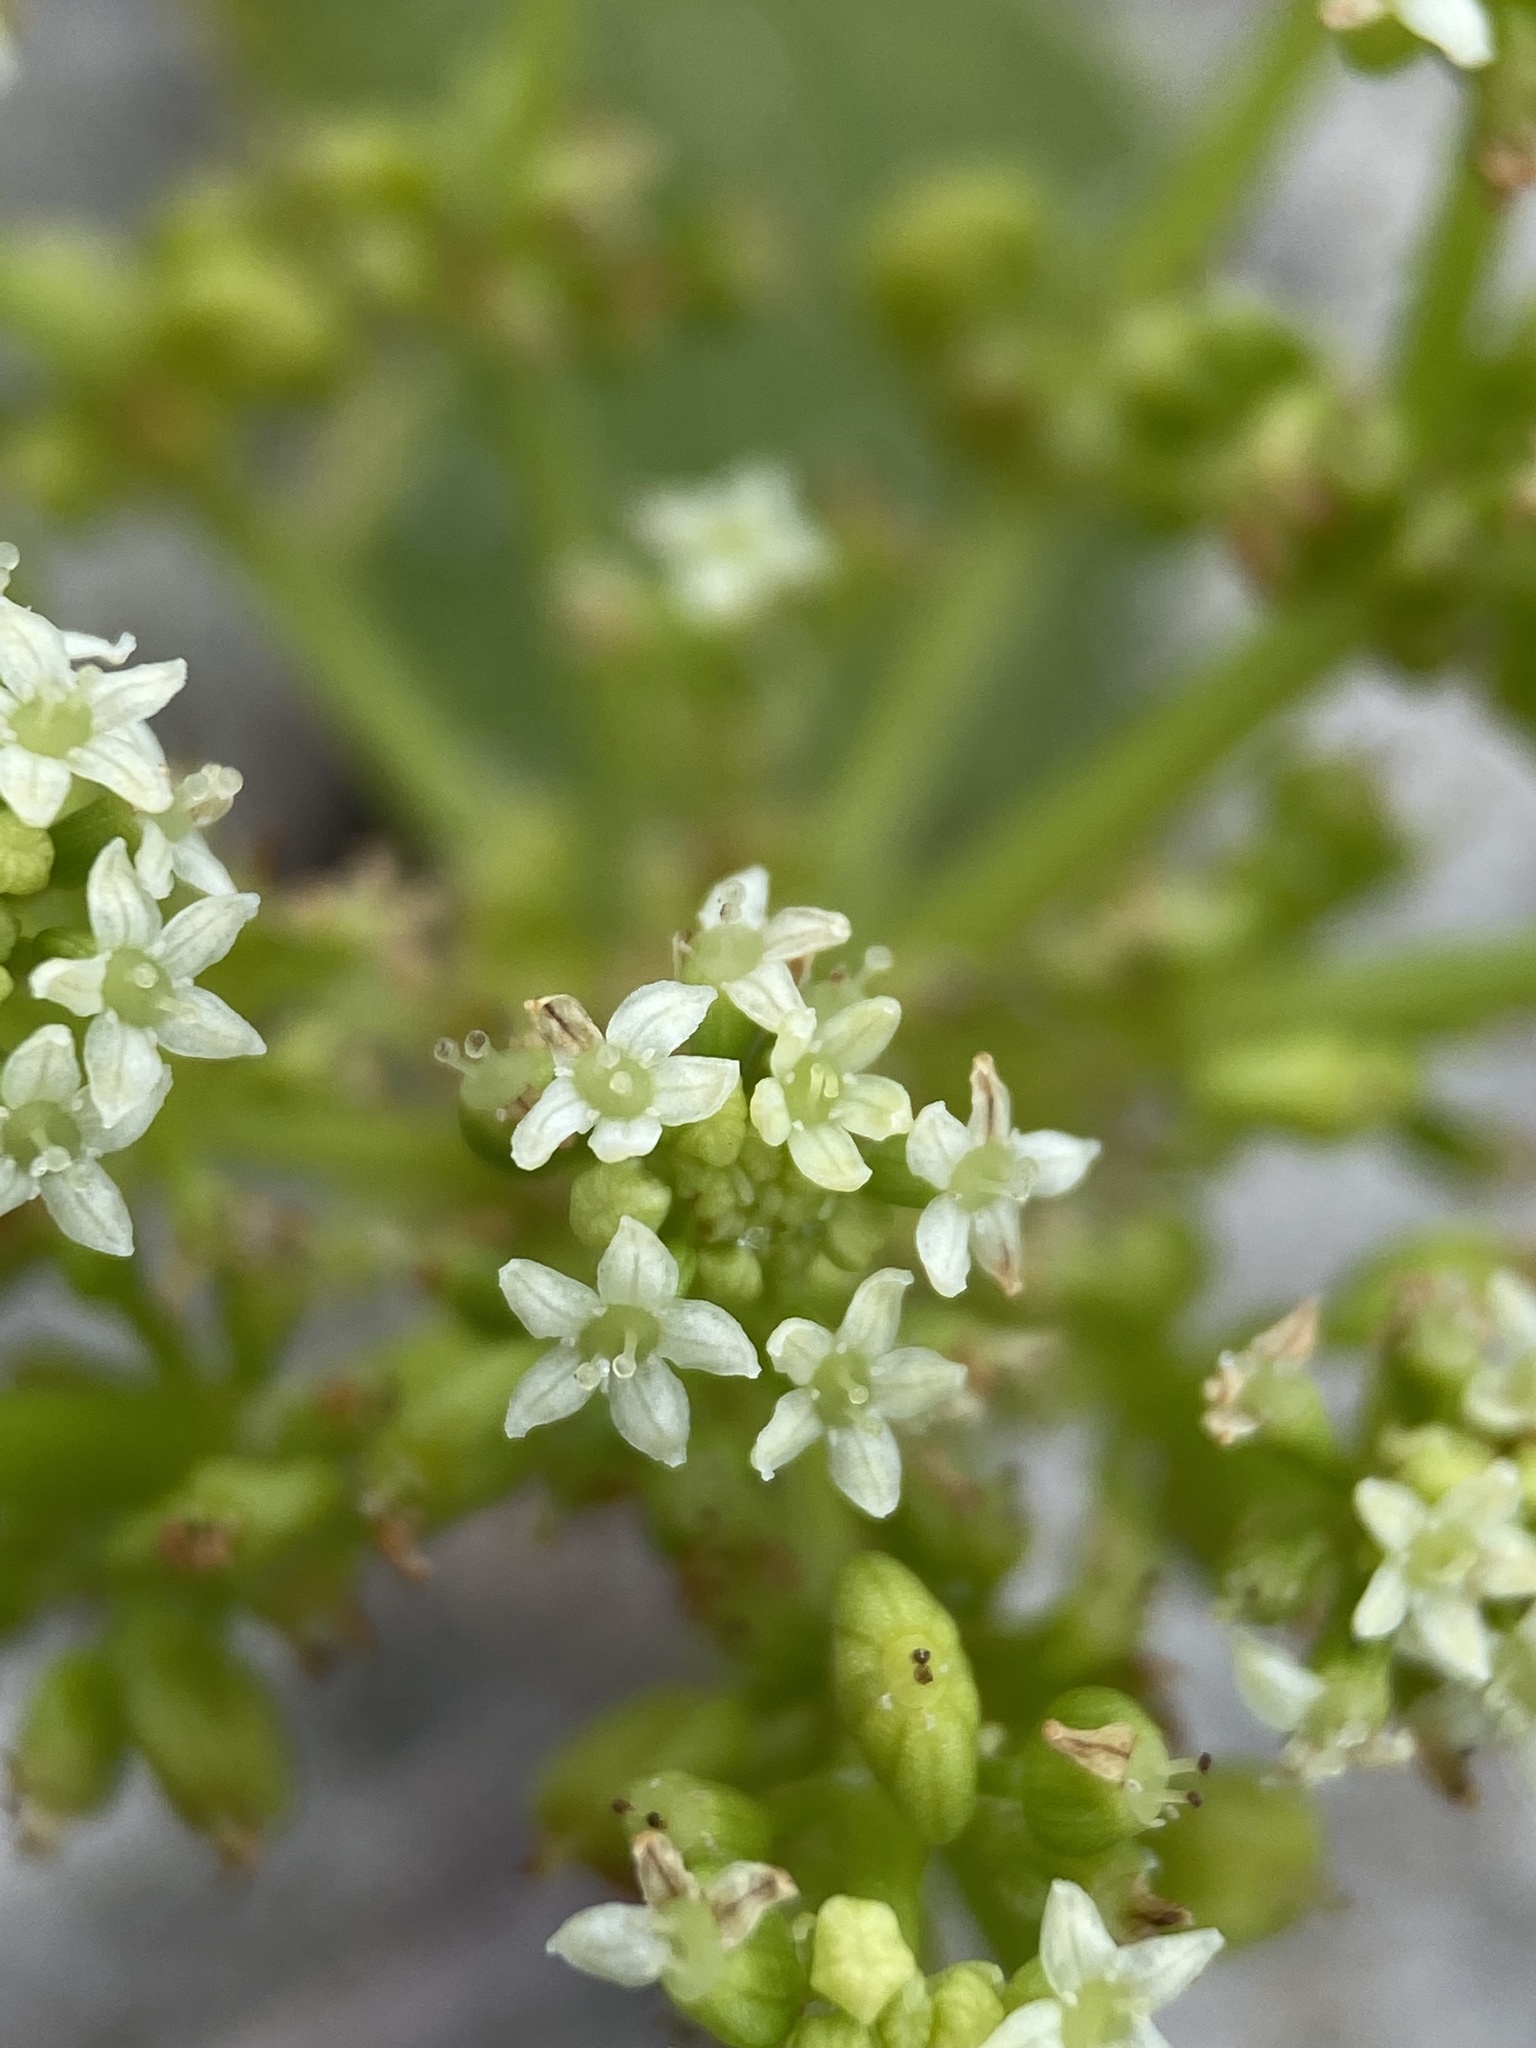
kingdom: Plantae
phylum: Tracheophyta
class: Magnoliopsida
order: Apiales
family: Araliaceae
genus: Hydrocotyle
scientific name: Hydrocotyle bonariensis
